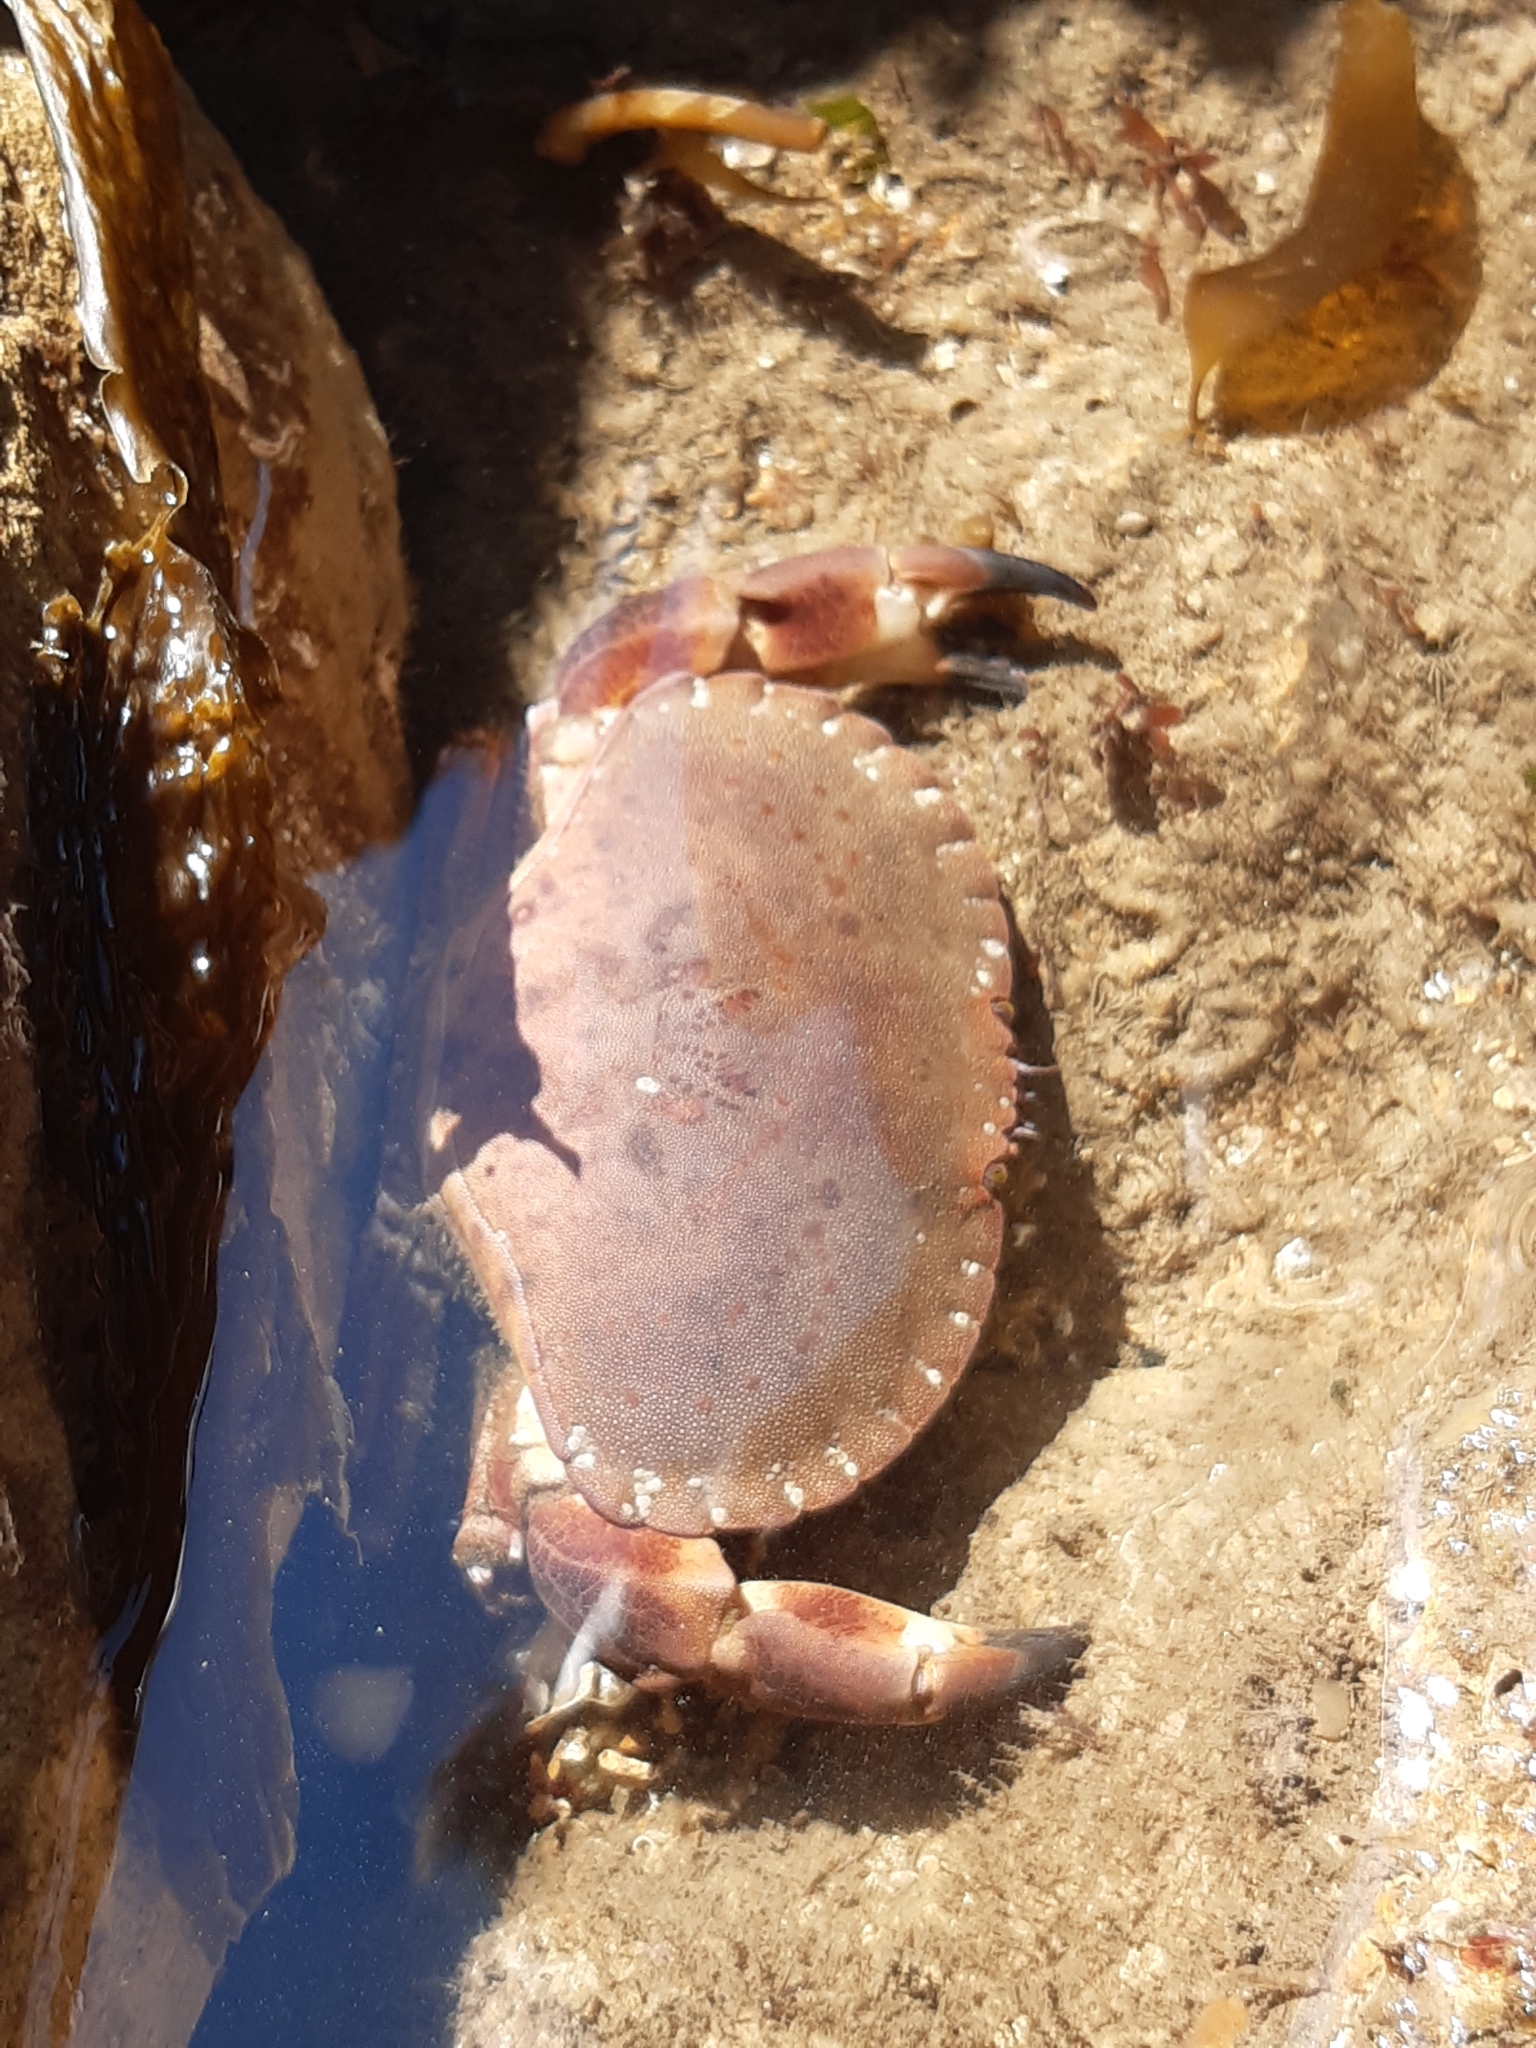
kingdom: Animalia
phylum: Arthropoda
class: Malacostraca
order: Decapoda
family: Cancridae
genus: Cancer
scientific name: Cancer pagurus
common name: Edible crab
